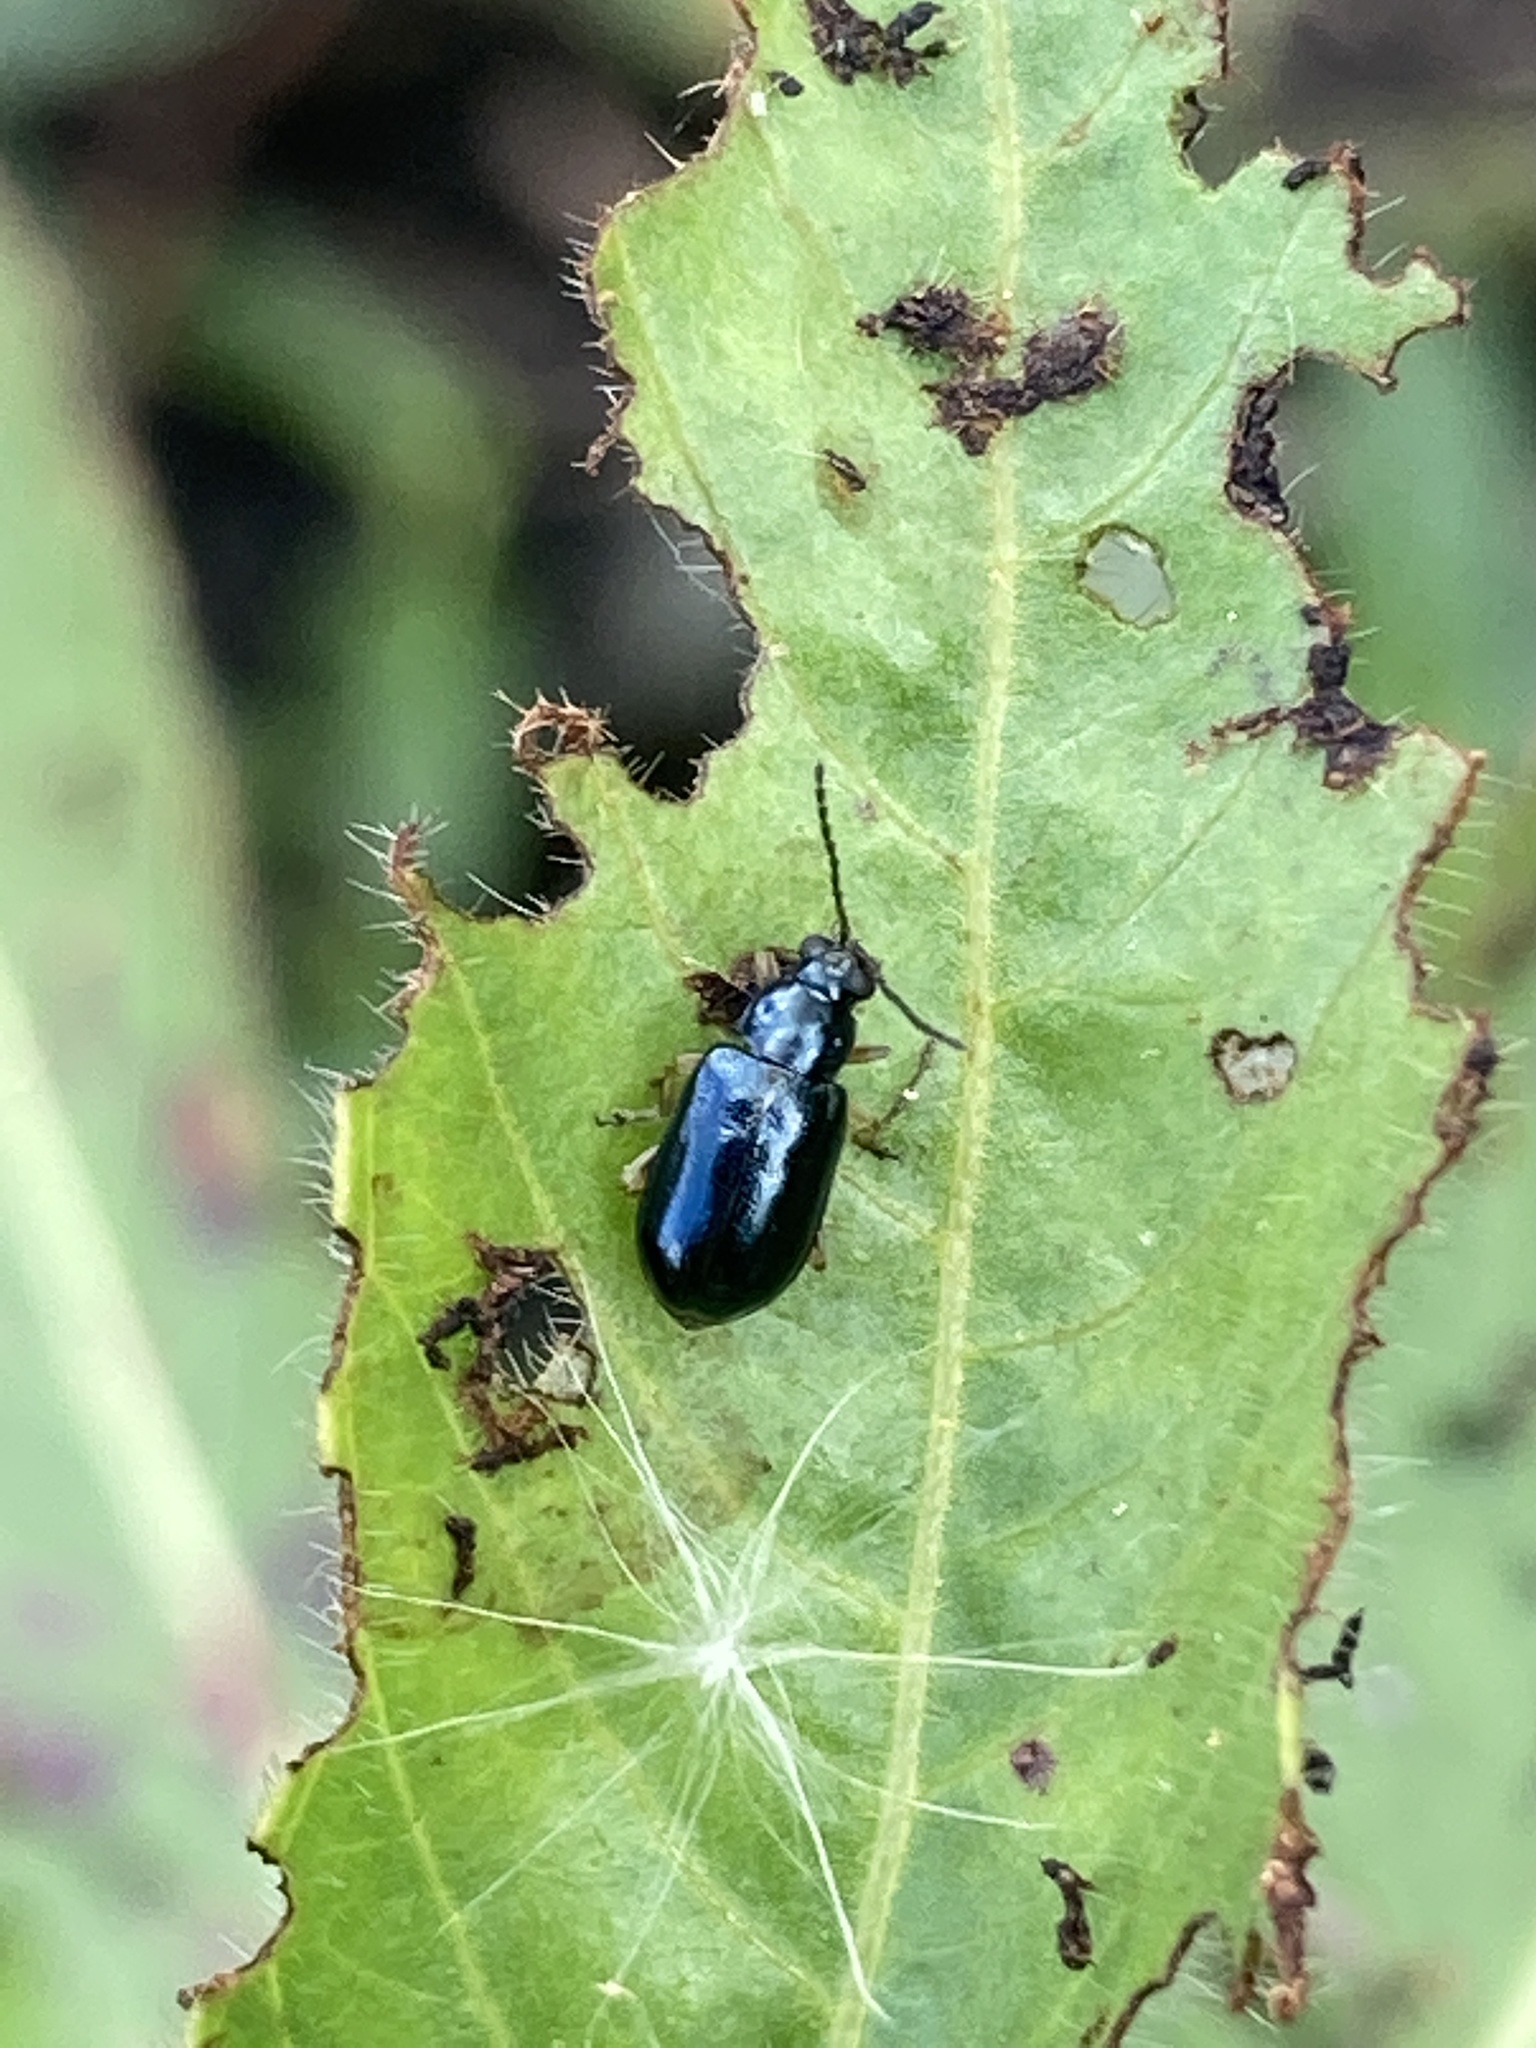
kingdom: Animalia
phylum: Arthropoda
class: Insecta
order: Coleoptera
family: Chrysomelidae
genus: Lysathia
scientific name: Lysathia ludoviciana
